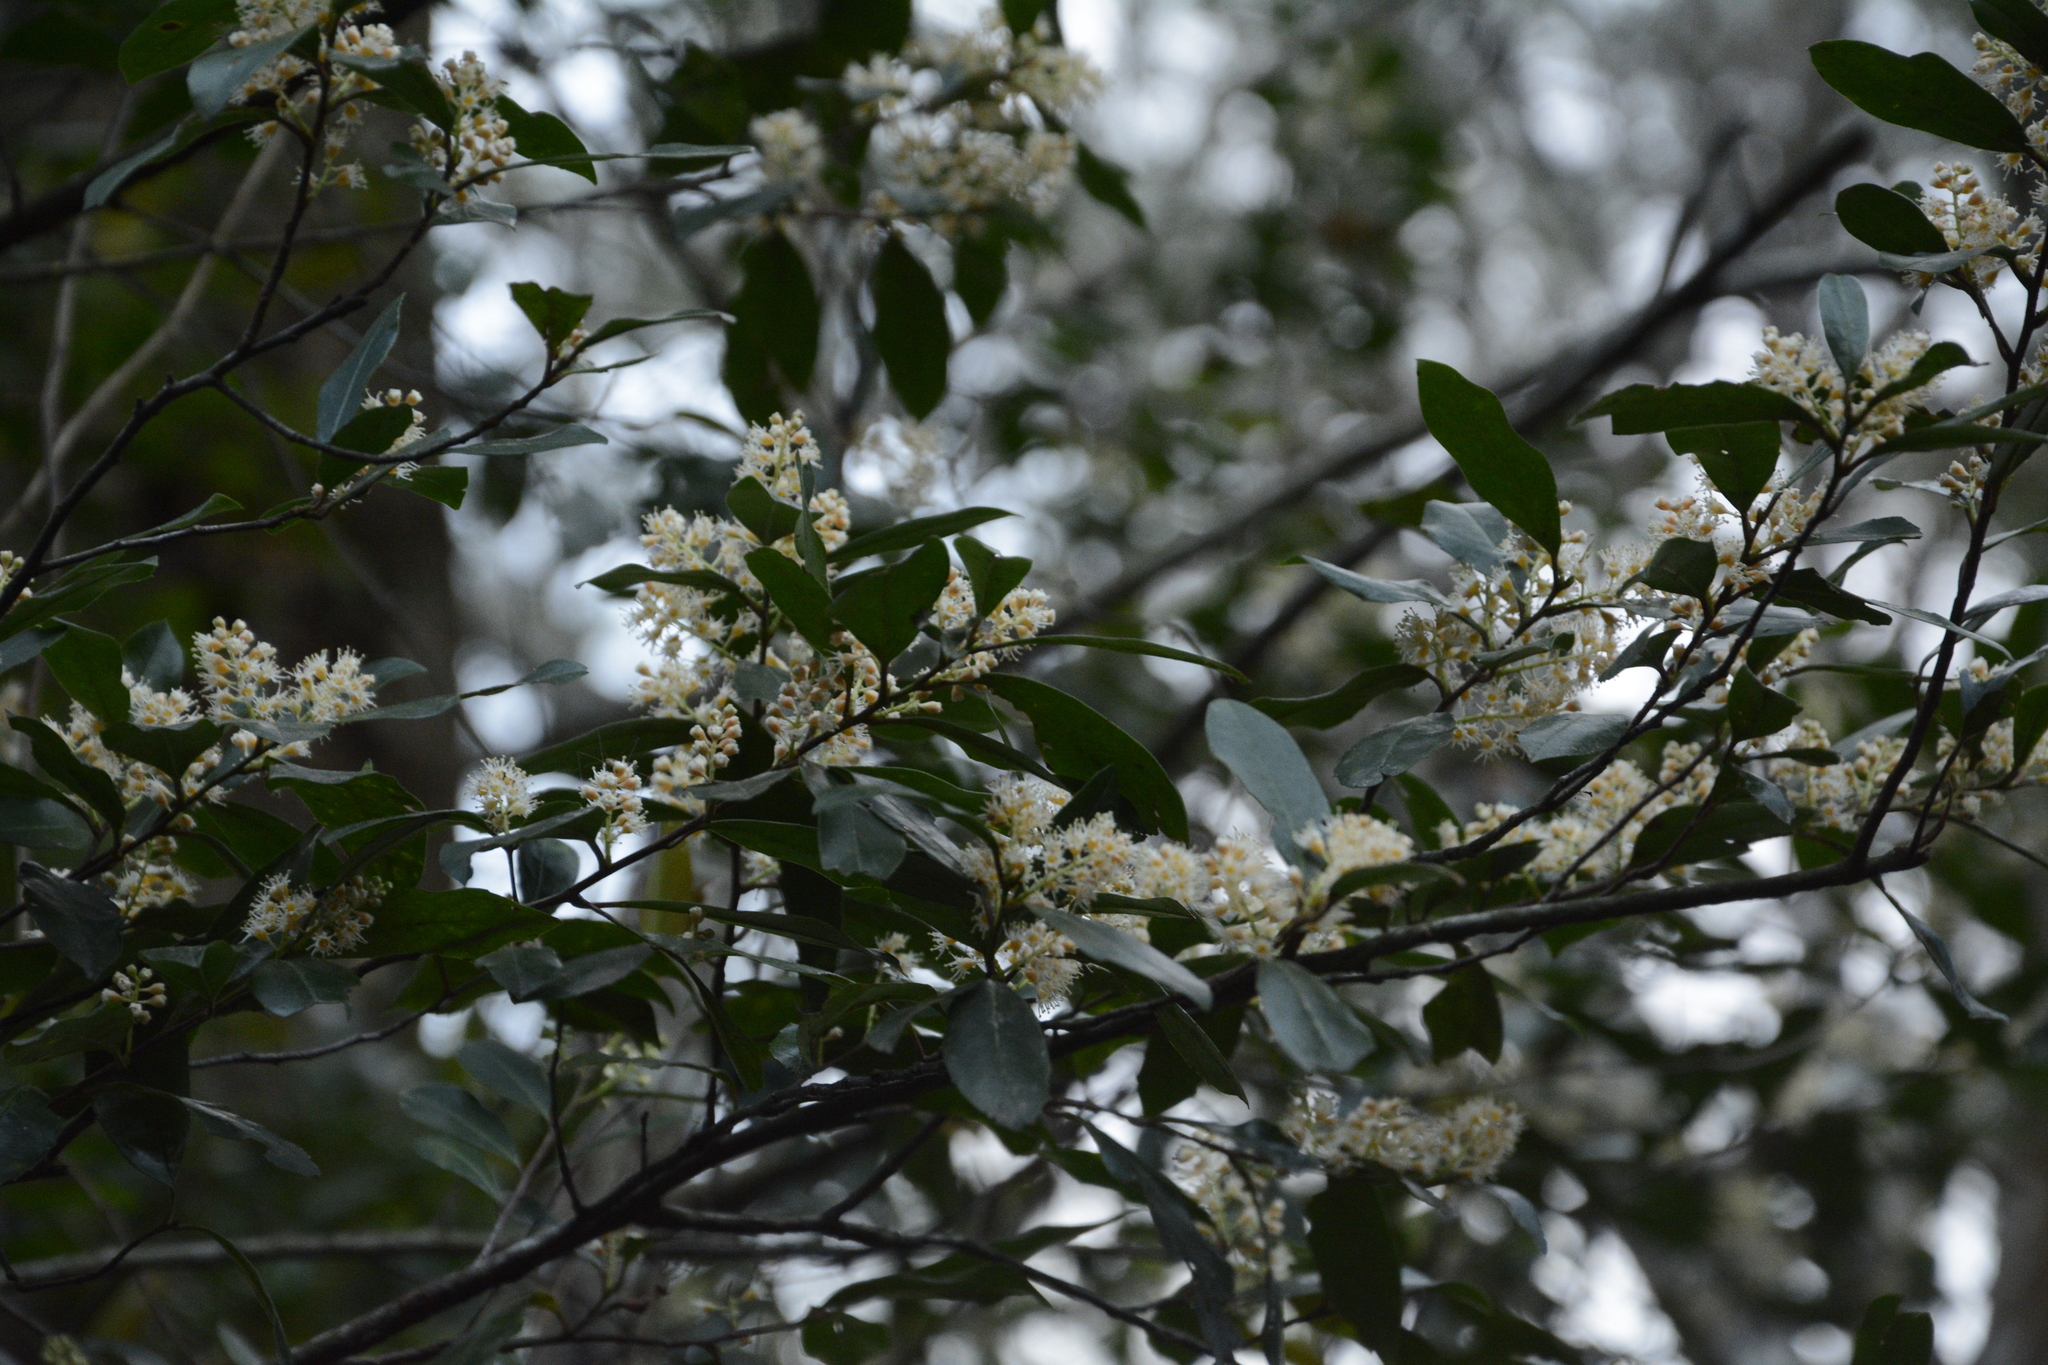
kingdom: Plantae
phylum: Tracheophyta
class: Magnoliopsida
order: Rosales
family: Rosaceae
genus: Prunus
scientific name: Prunus caroliniana
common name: Carolina laurel cherry
